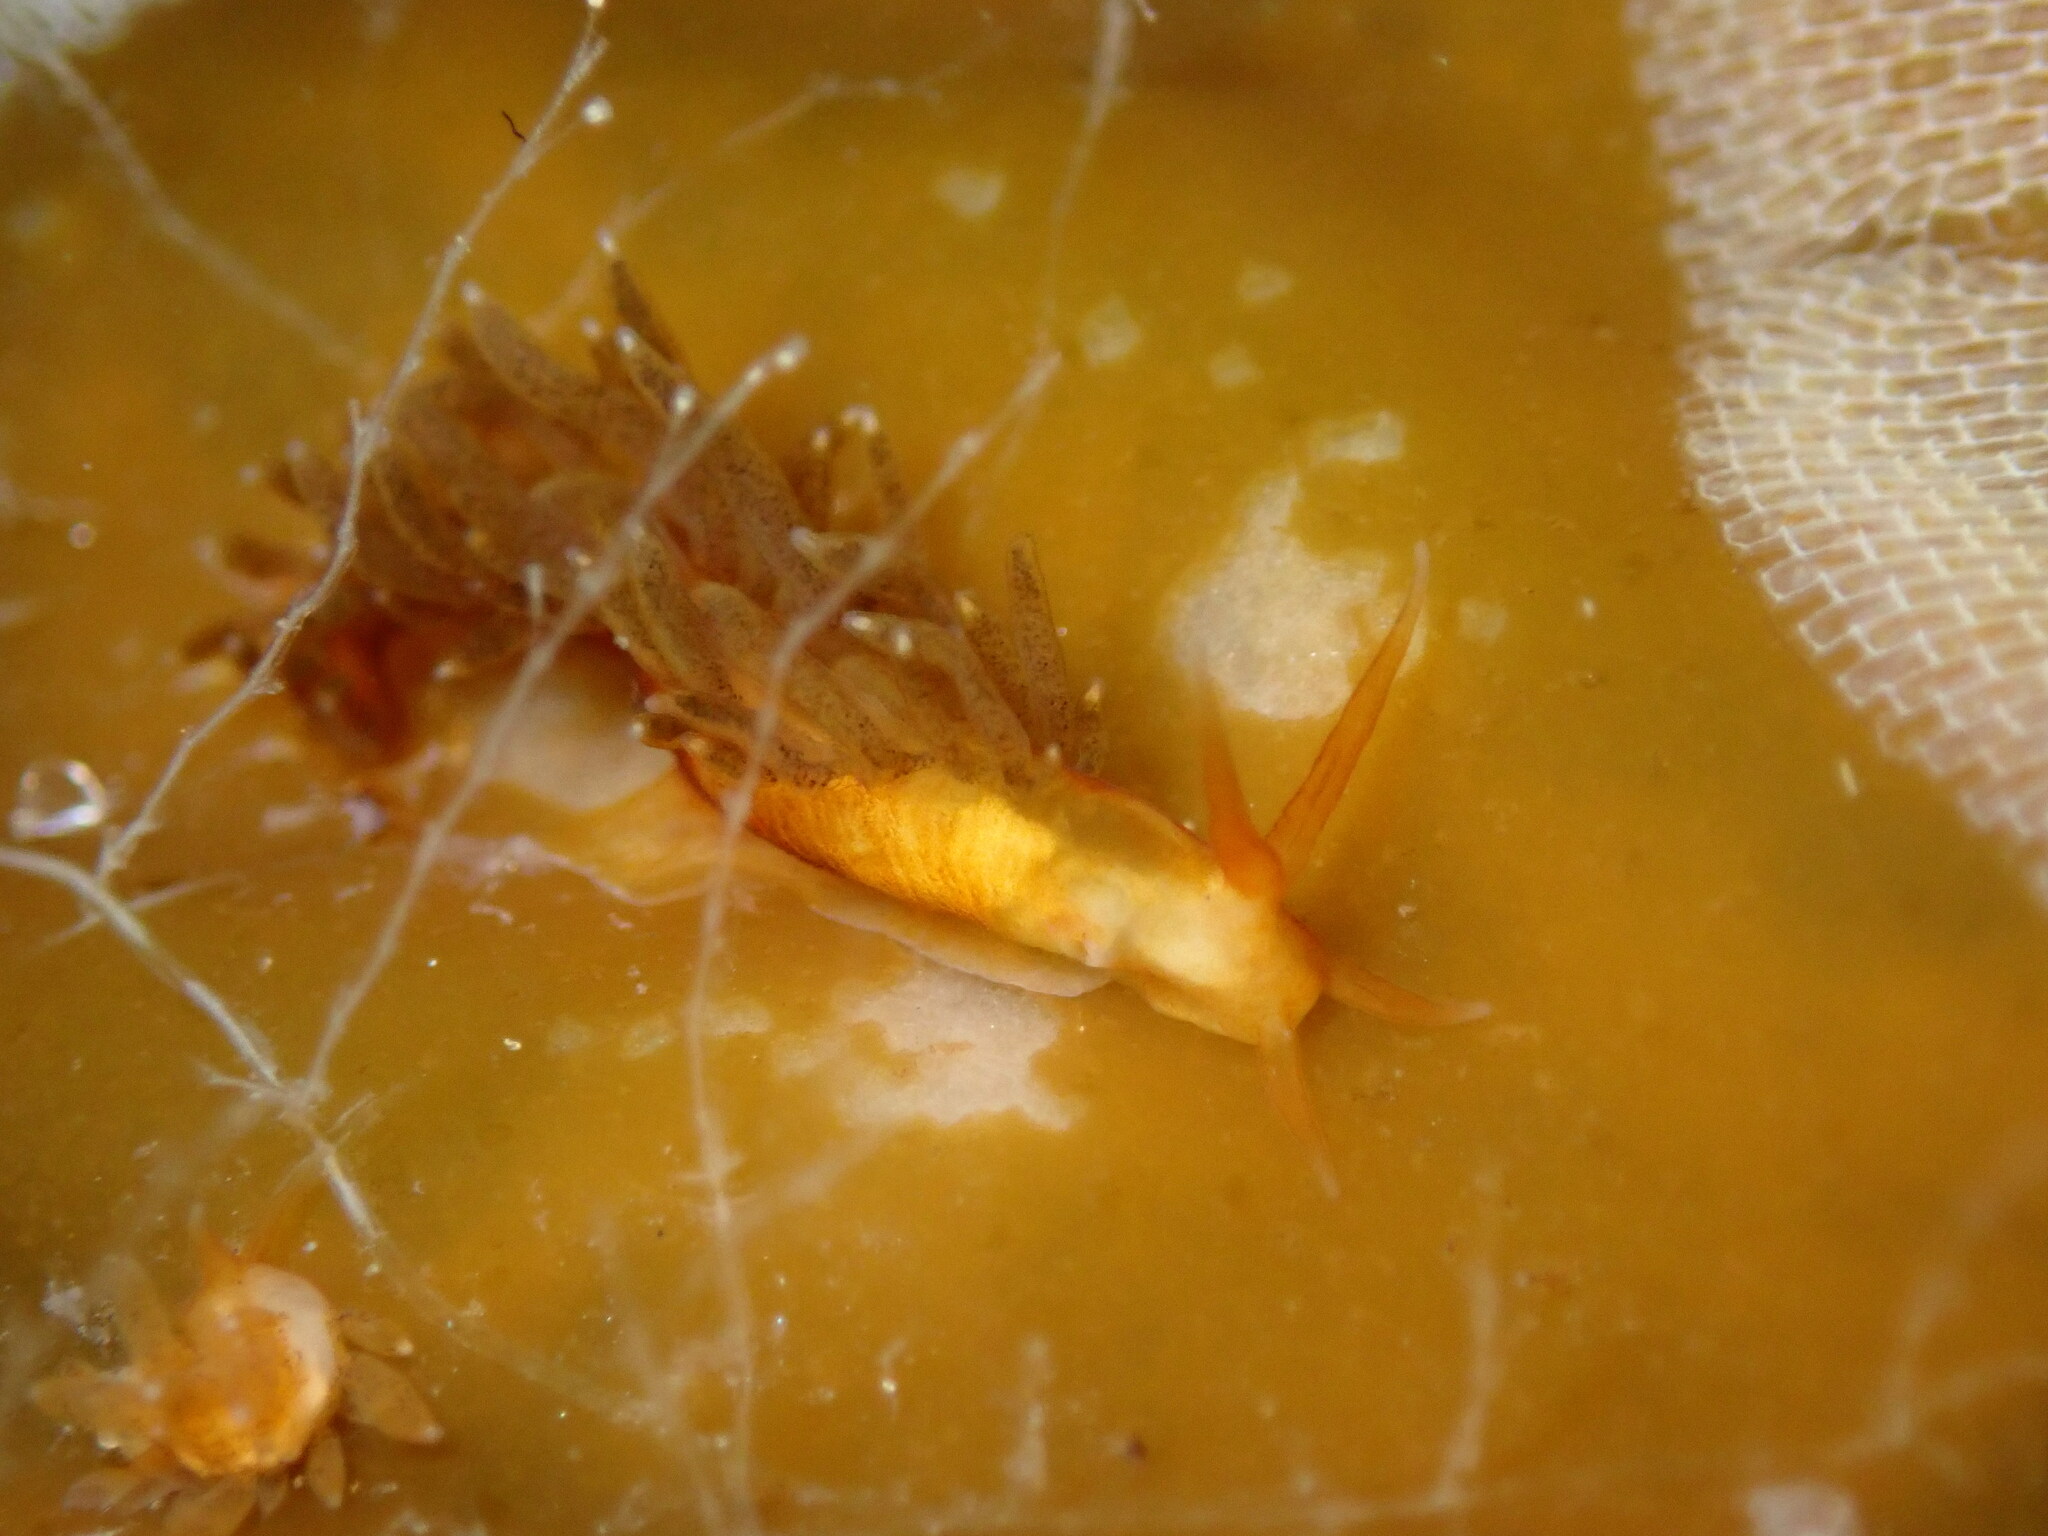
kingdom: Animalia
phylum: Mollusca
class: Gastropoda
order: Nudibranchia
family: Cuthonidae
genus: Cuthona
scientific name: Cuthona phoenix
